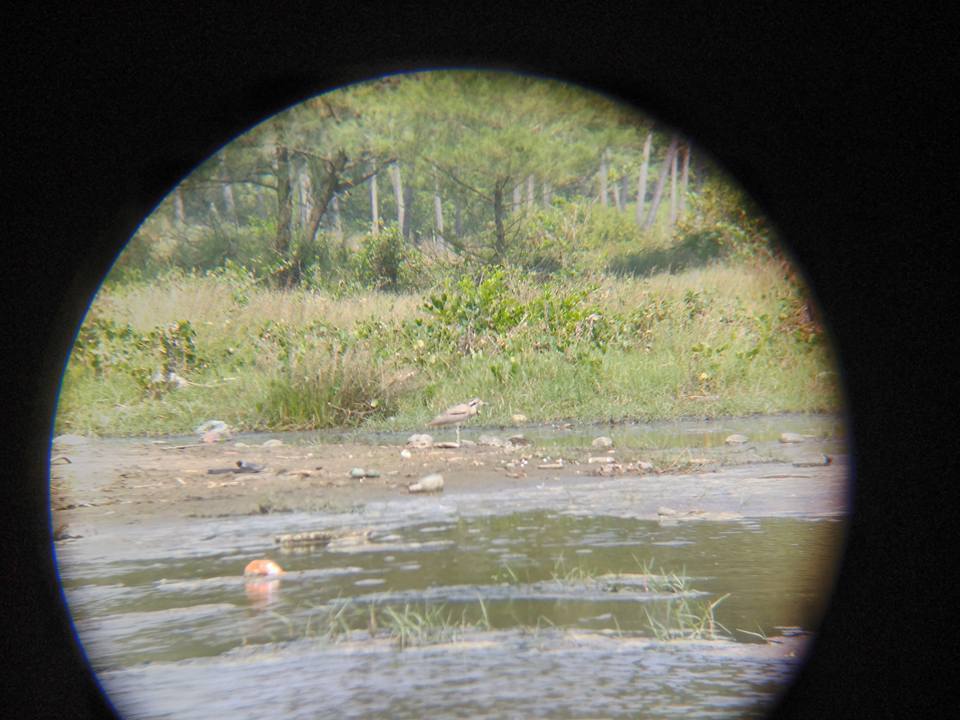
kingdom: Animalia
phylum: Chordata
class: Aves
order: Charadriiformes
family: Burhinidae
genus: Esacus
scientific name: Esacus recurvirostris
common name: Great stone-curlew
